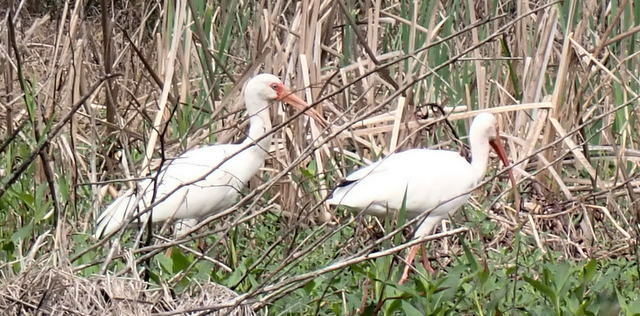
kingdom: Animalia
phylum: Chordata
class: Aves
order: Pelecaniformes
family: Threskiornithidae
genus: Eudocimus
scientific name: Eudocimus albus
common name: White ibis
